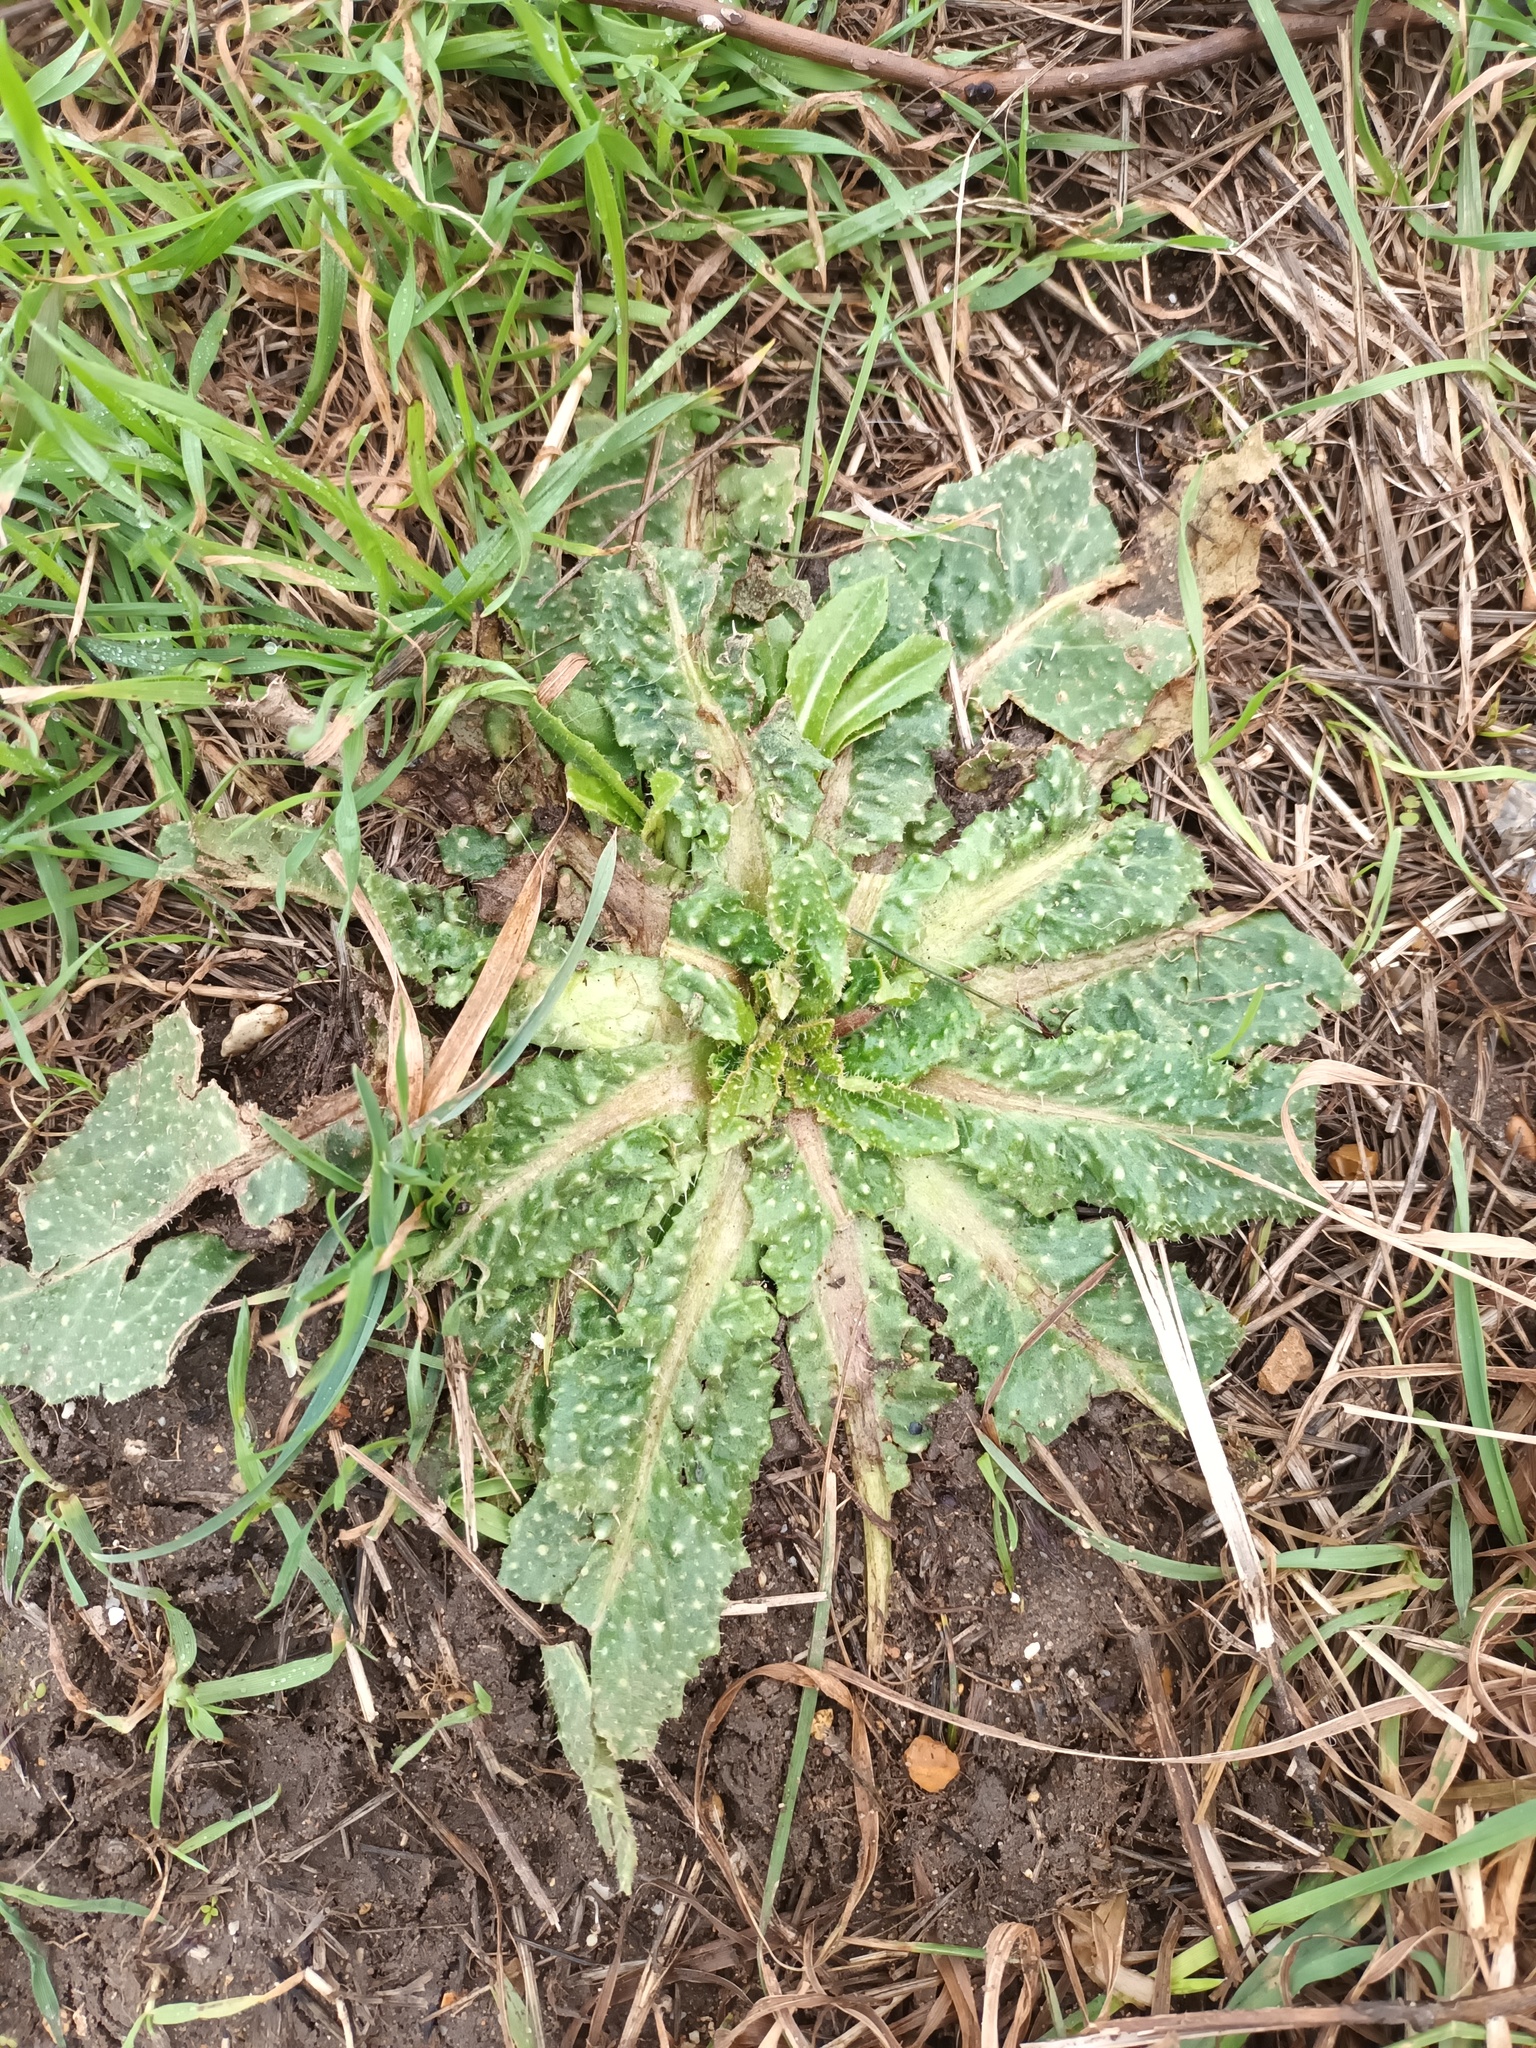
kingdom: Plantae
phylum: Tracheophyta
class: Magnoliopsida
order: Asterales
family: Asteraceae
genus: Helminthotheca
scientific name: Helminthotheca echioides
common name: Ox-tongue
